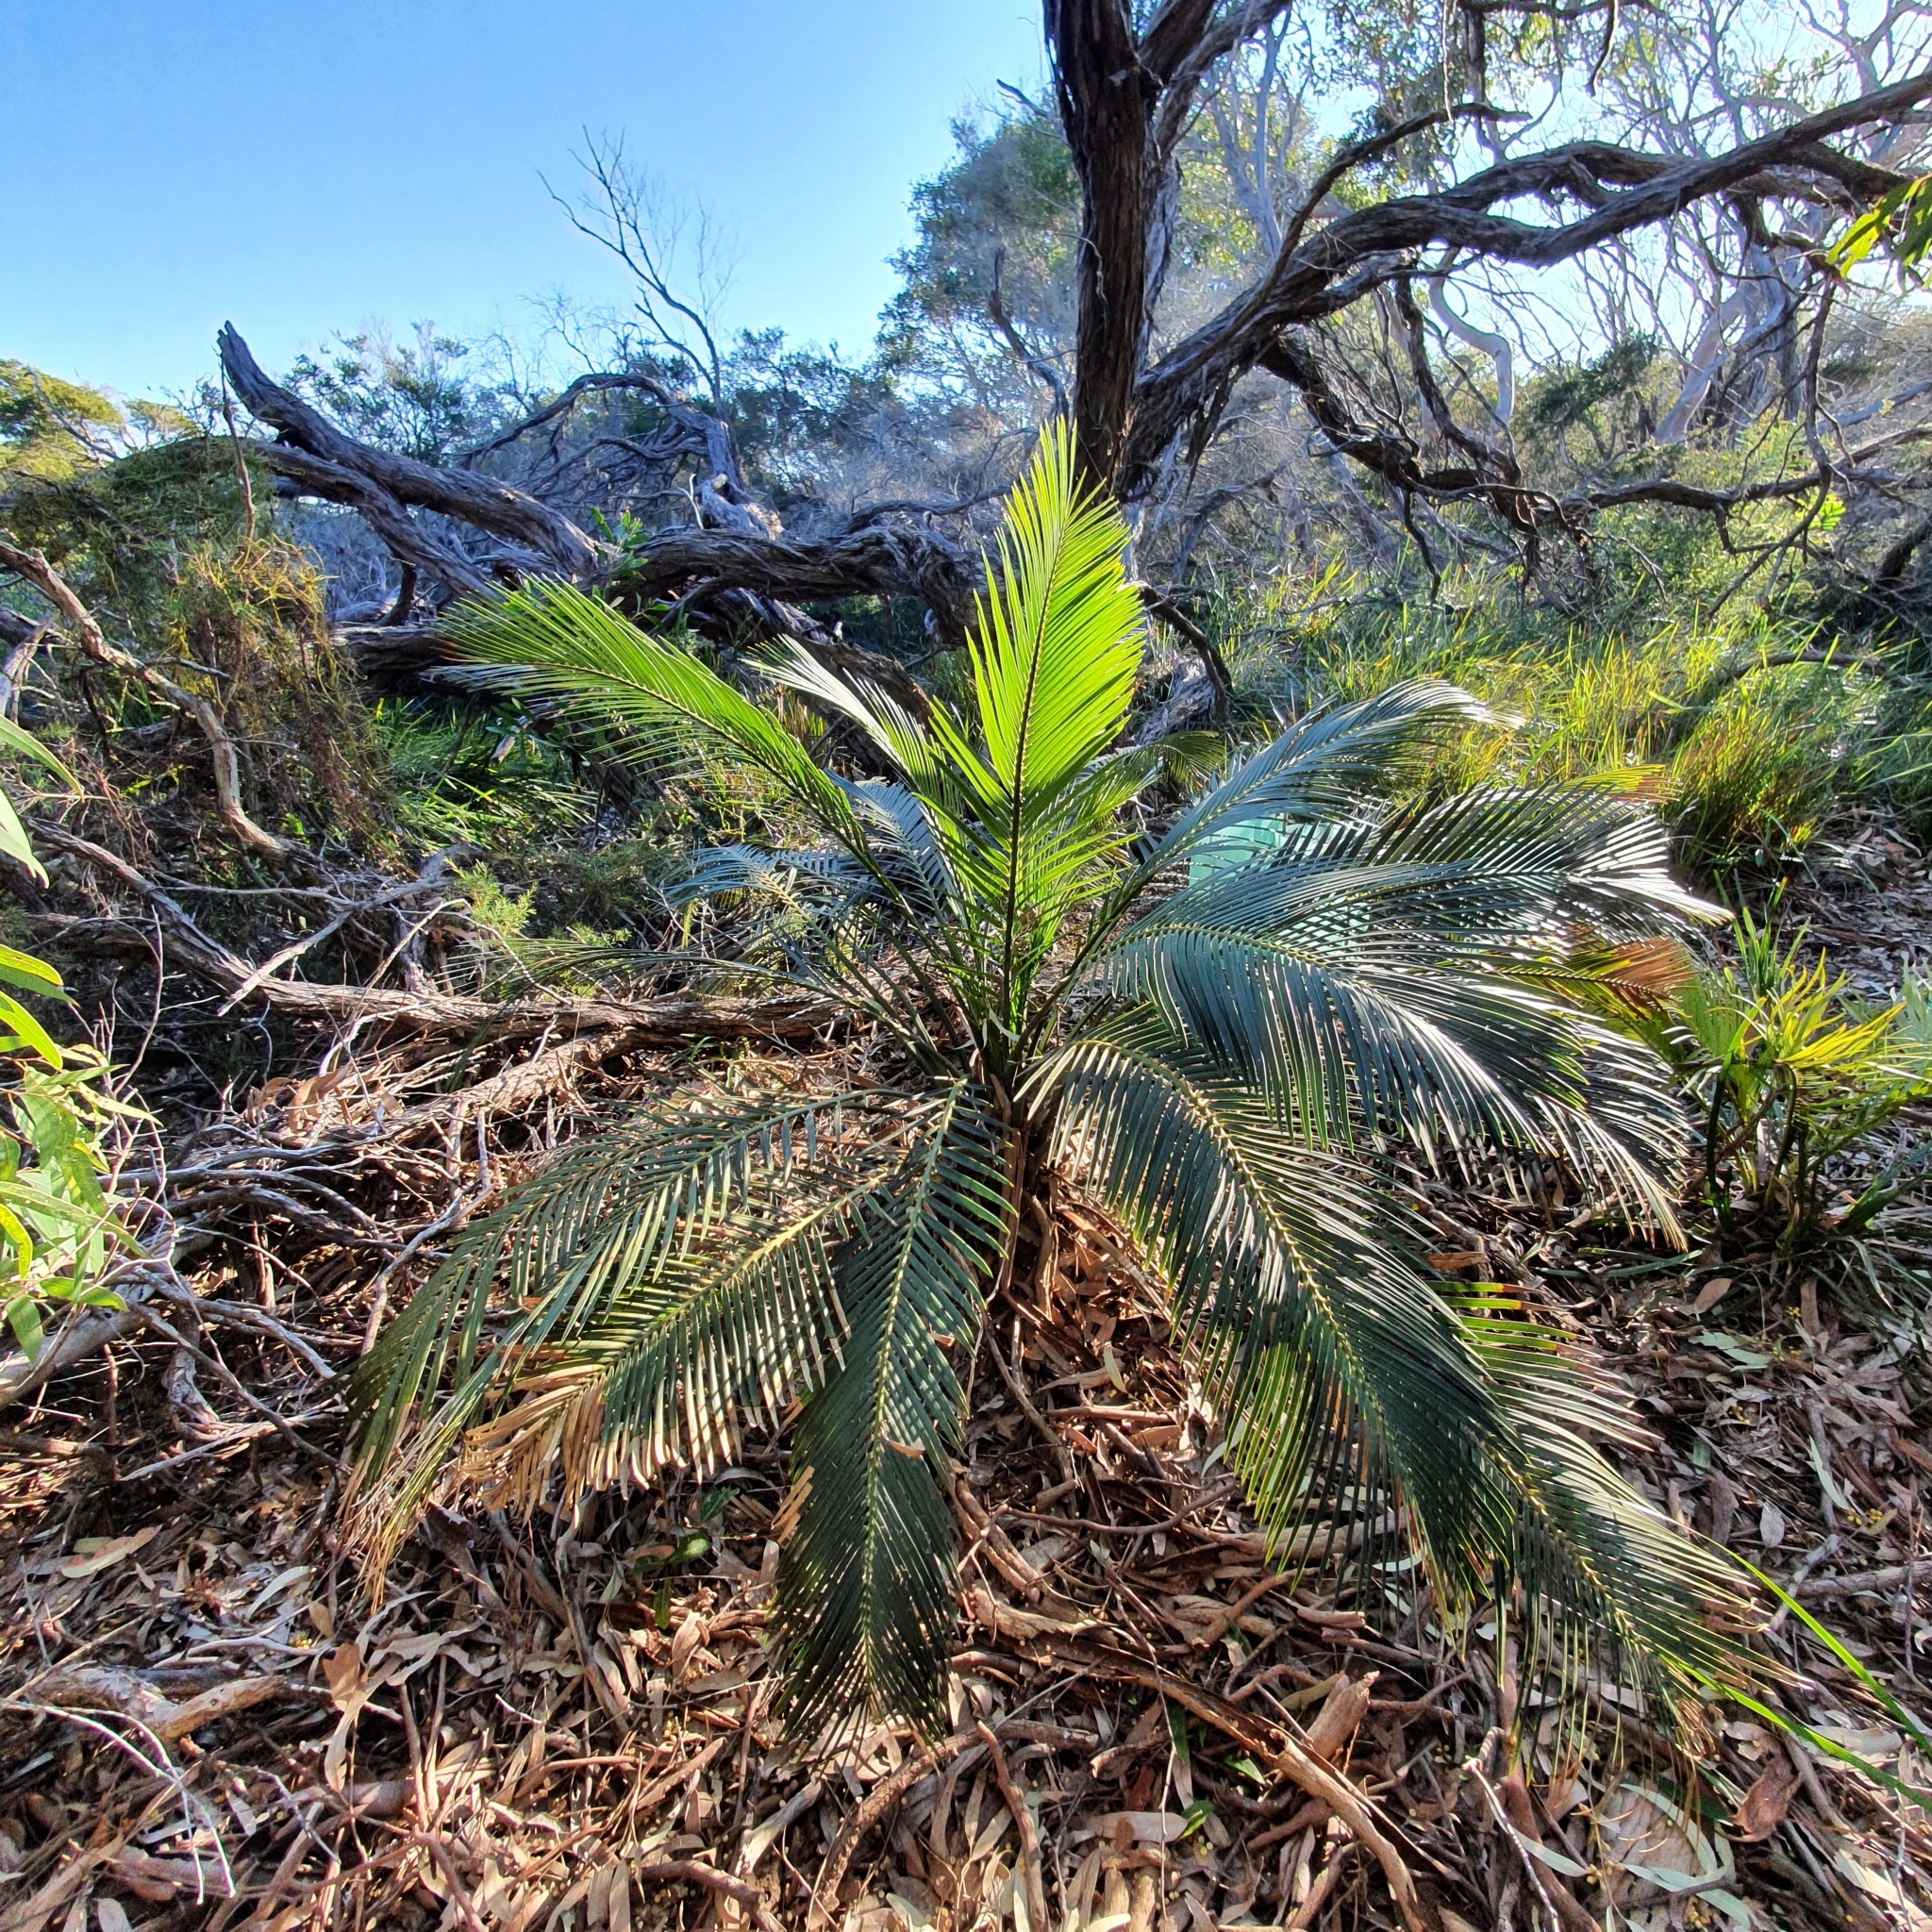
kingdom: Plantae
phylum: Tracheophyta
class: Cycadopsida
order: Cycadales
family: Zamiaceae
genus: Macrozamia
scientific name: Macrozamia communis
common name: Burrawong
